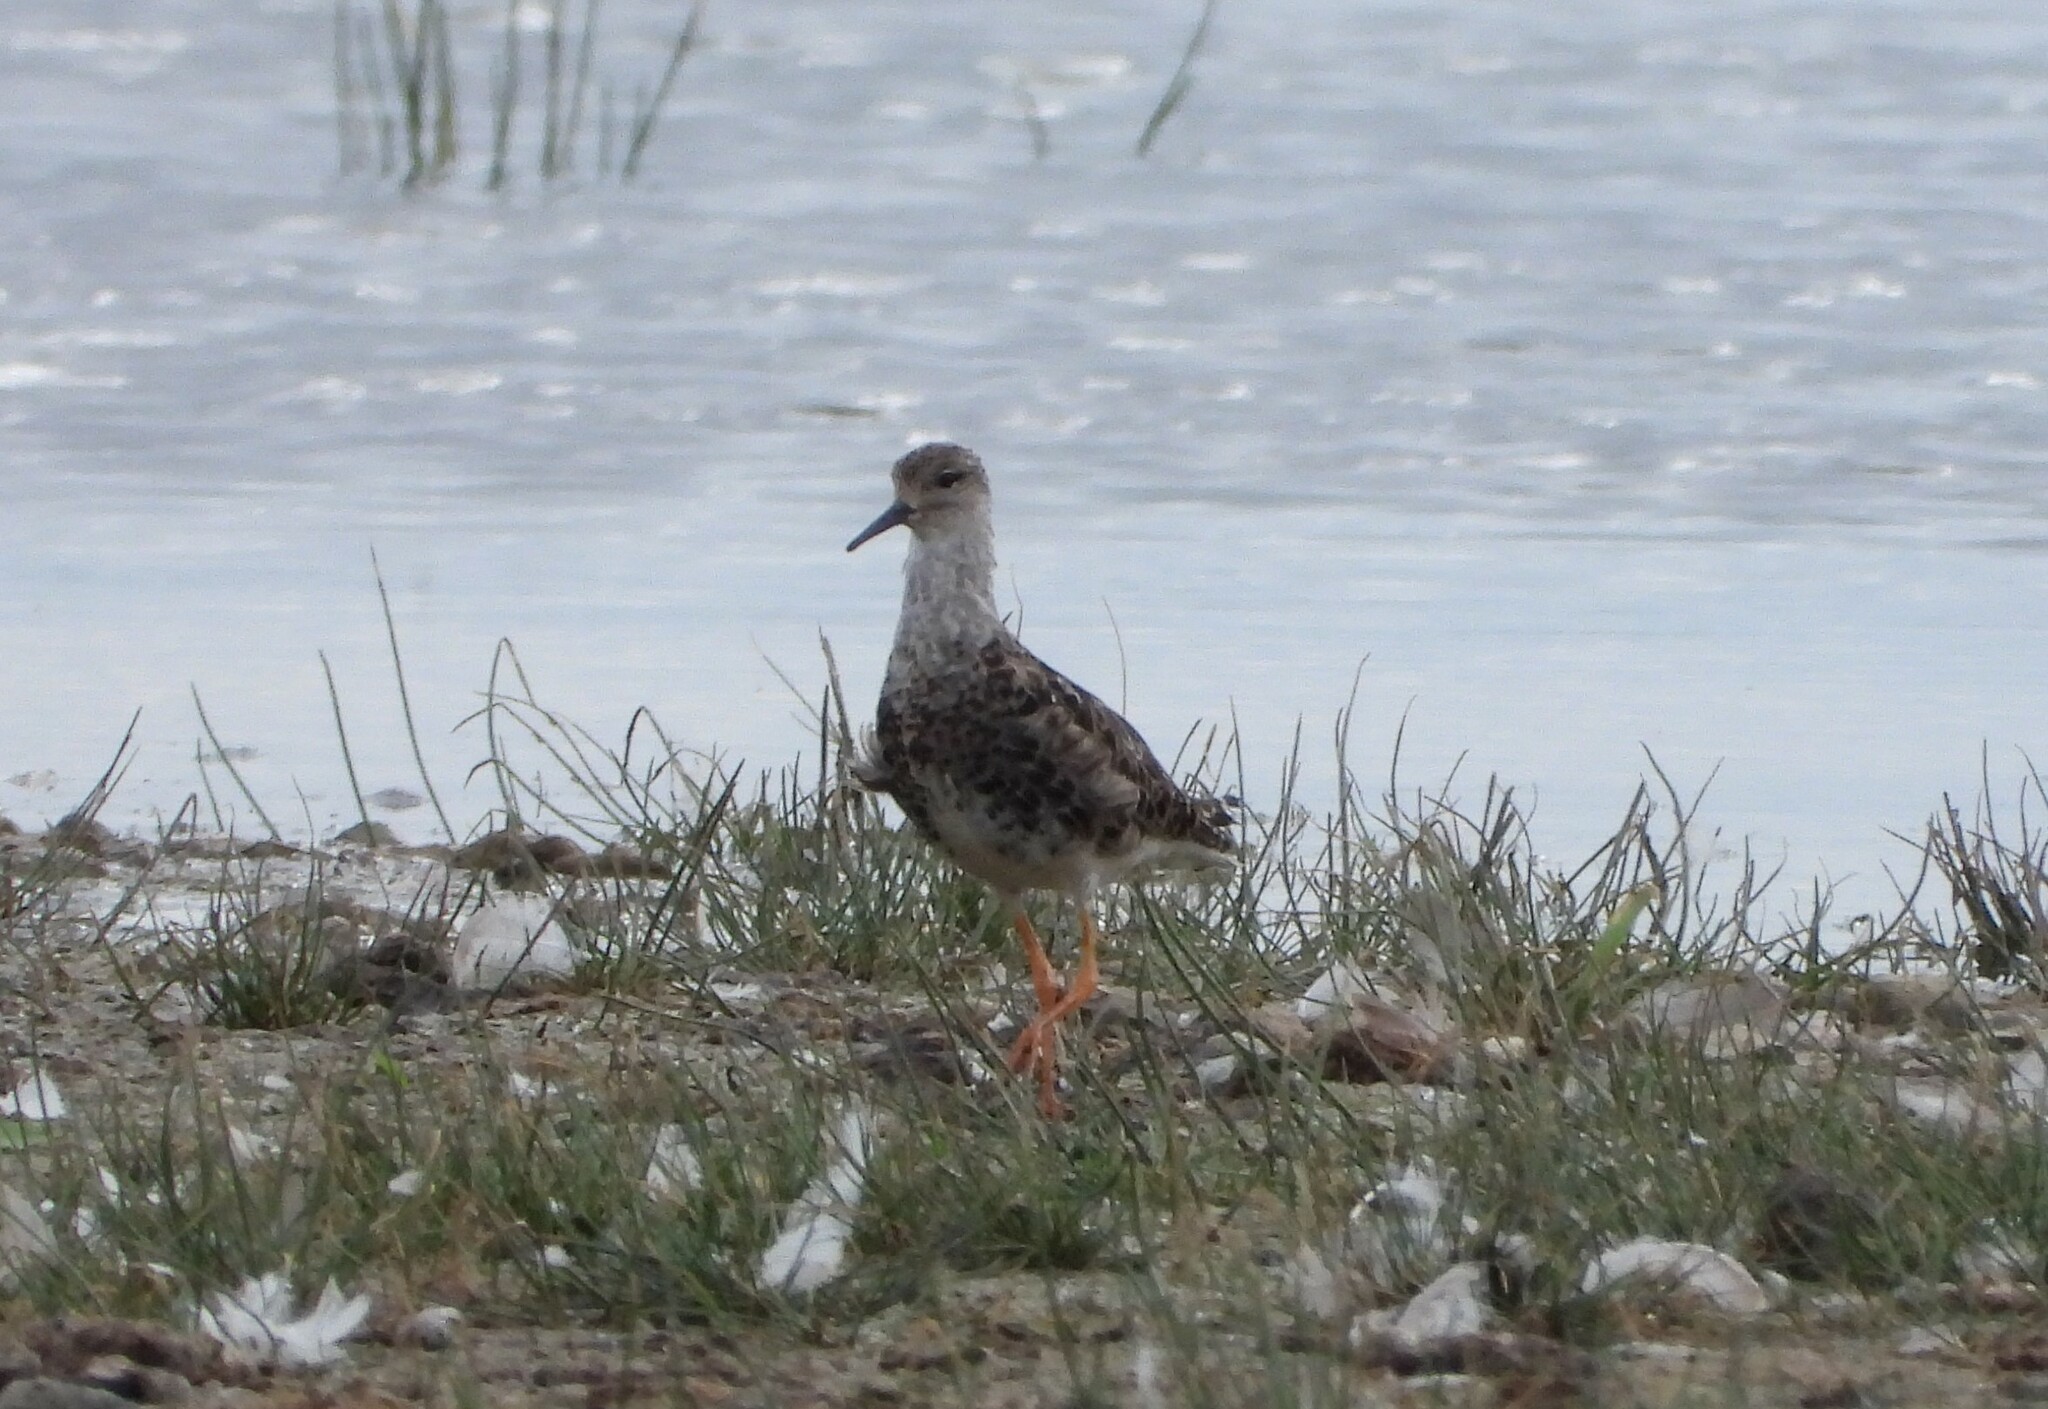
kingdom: Animalia
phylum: Chordata
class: Aves
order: Charadriiformes
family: Scolopacidae
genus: Calidris
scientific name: Calidris pugnax
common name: Ruff
